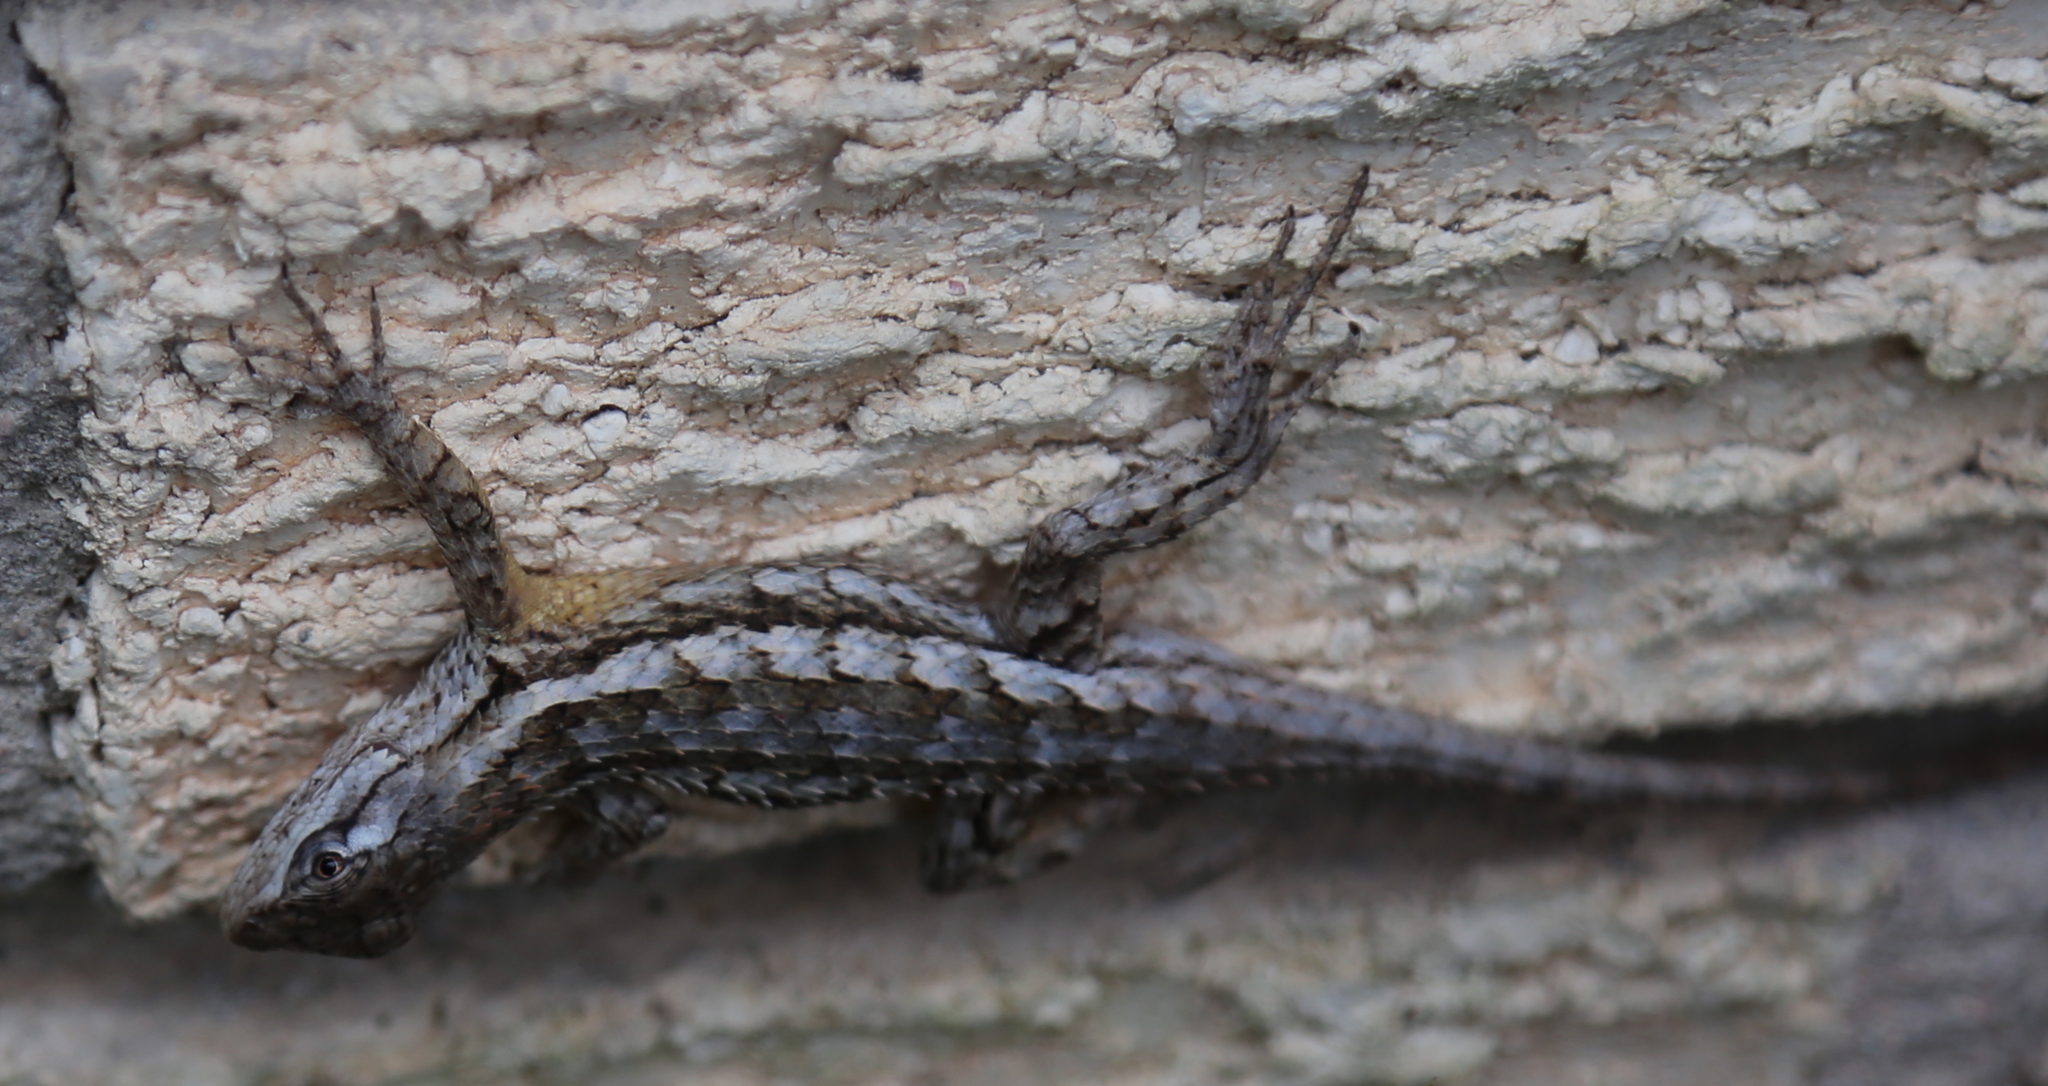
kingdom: Animalia
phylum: Chordata
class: Squamata
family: Phrynosomatidae
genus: Sceloporus
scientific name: Sceloporus olivaceus
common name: Texas spiny lizard
